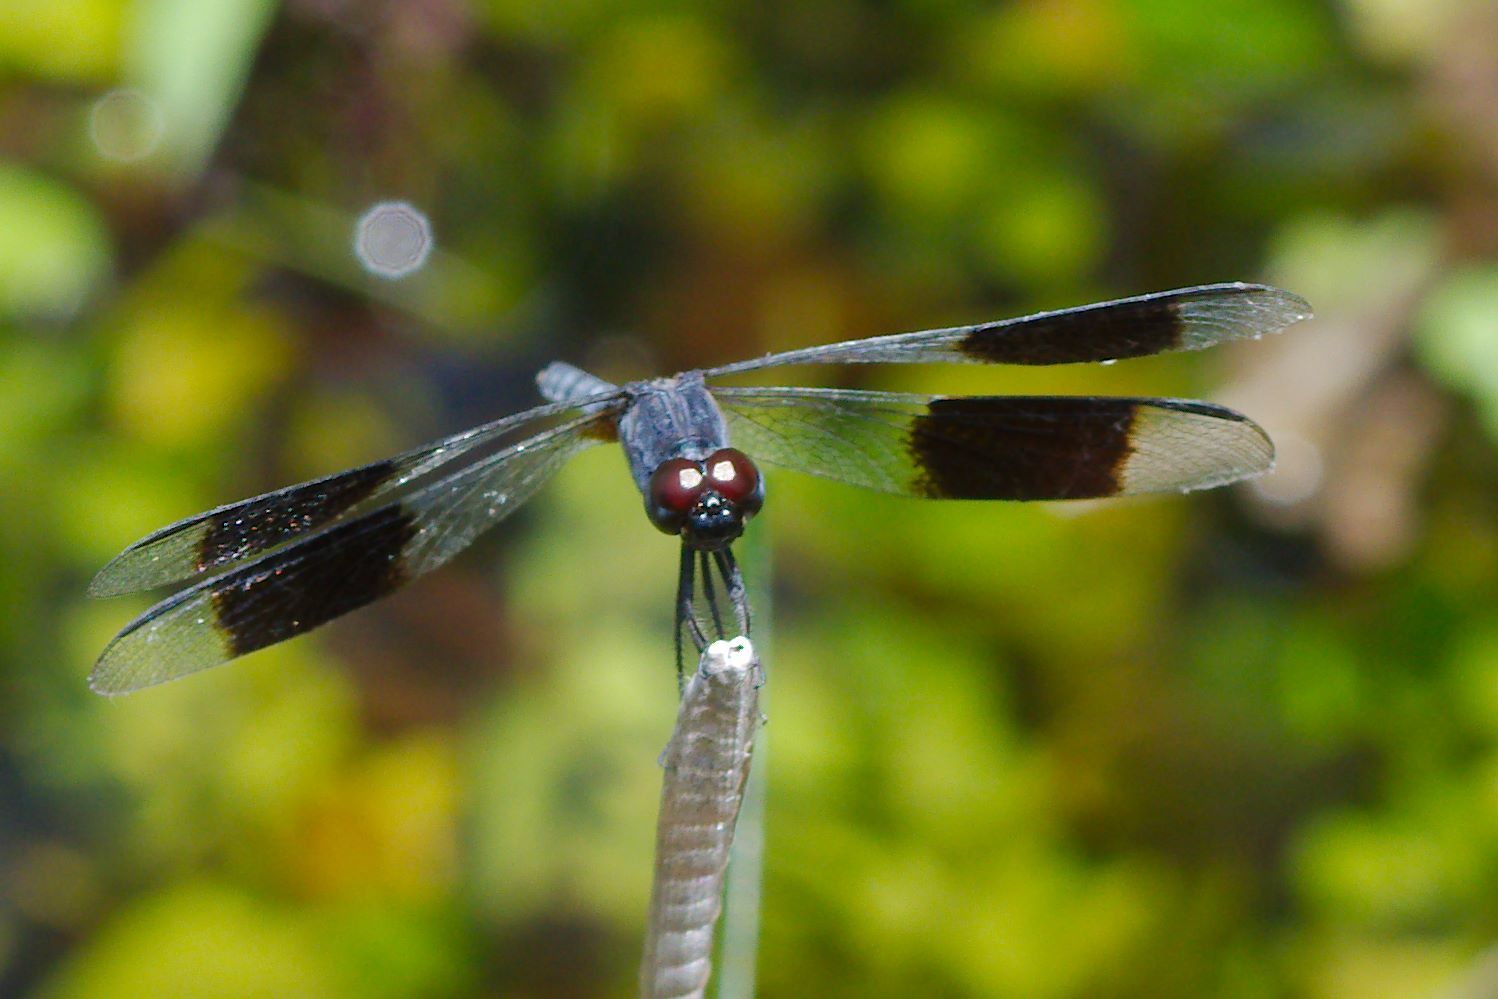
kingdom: Animalia
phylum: Arthropoda
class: Insecta
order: Odonata
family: Libellulidae
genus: Erythrodiplax
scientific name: Erythrodiplax umbrata
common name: Band-winged dragonlet
